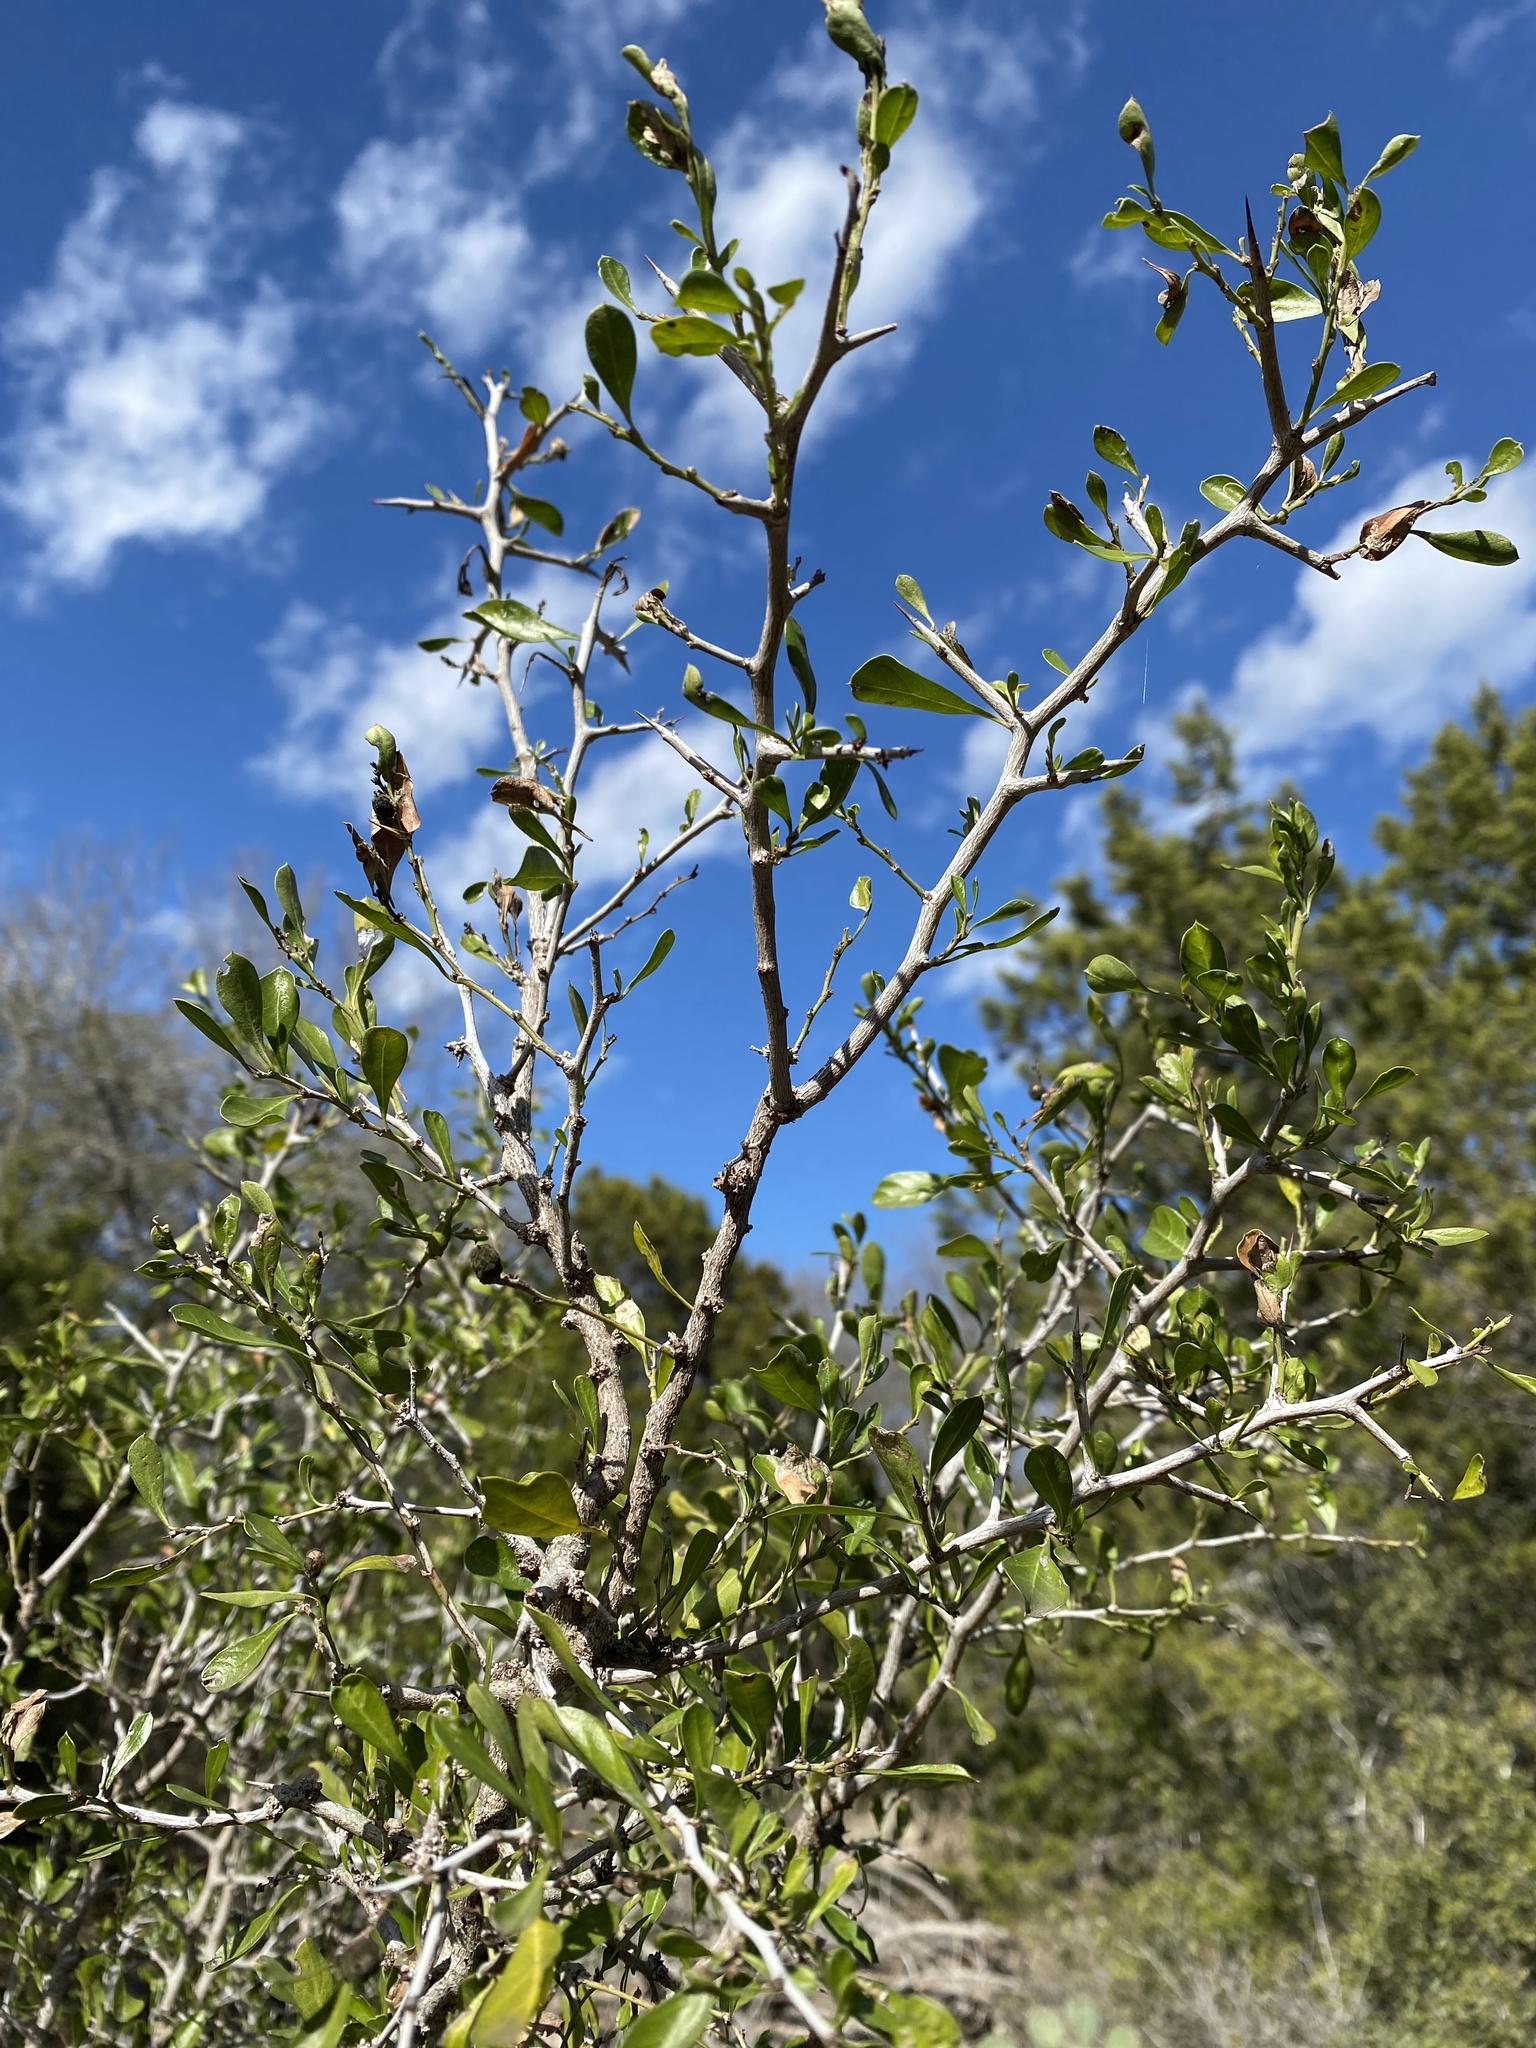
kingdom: Plantae
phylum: Tracheophyta
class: Magnoliopsida
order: Rosales
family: Rhamnaceae
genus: Condalia
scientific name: Condalia hookeri
